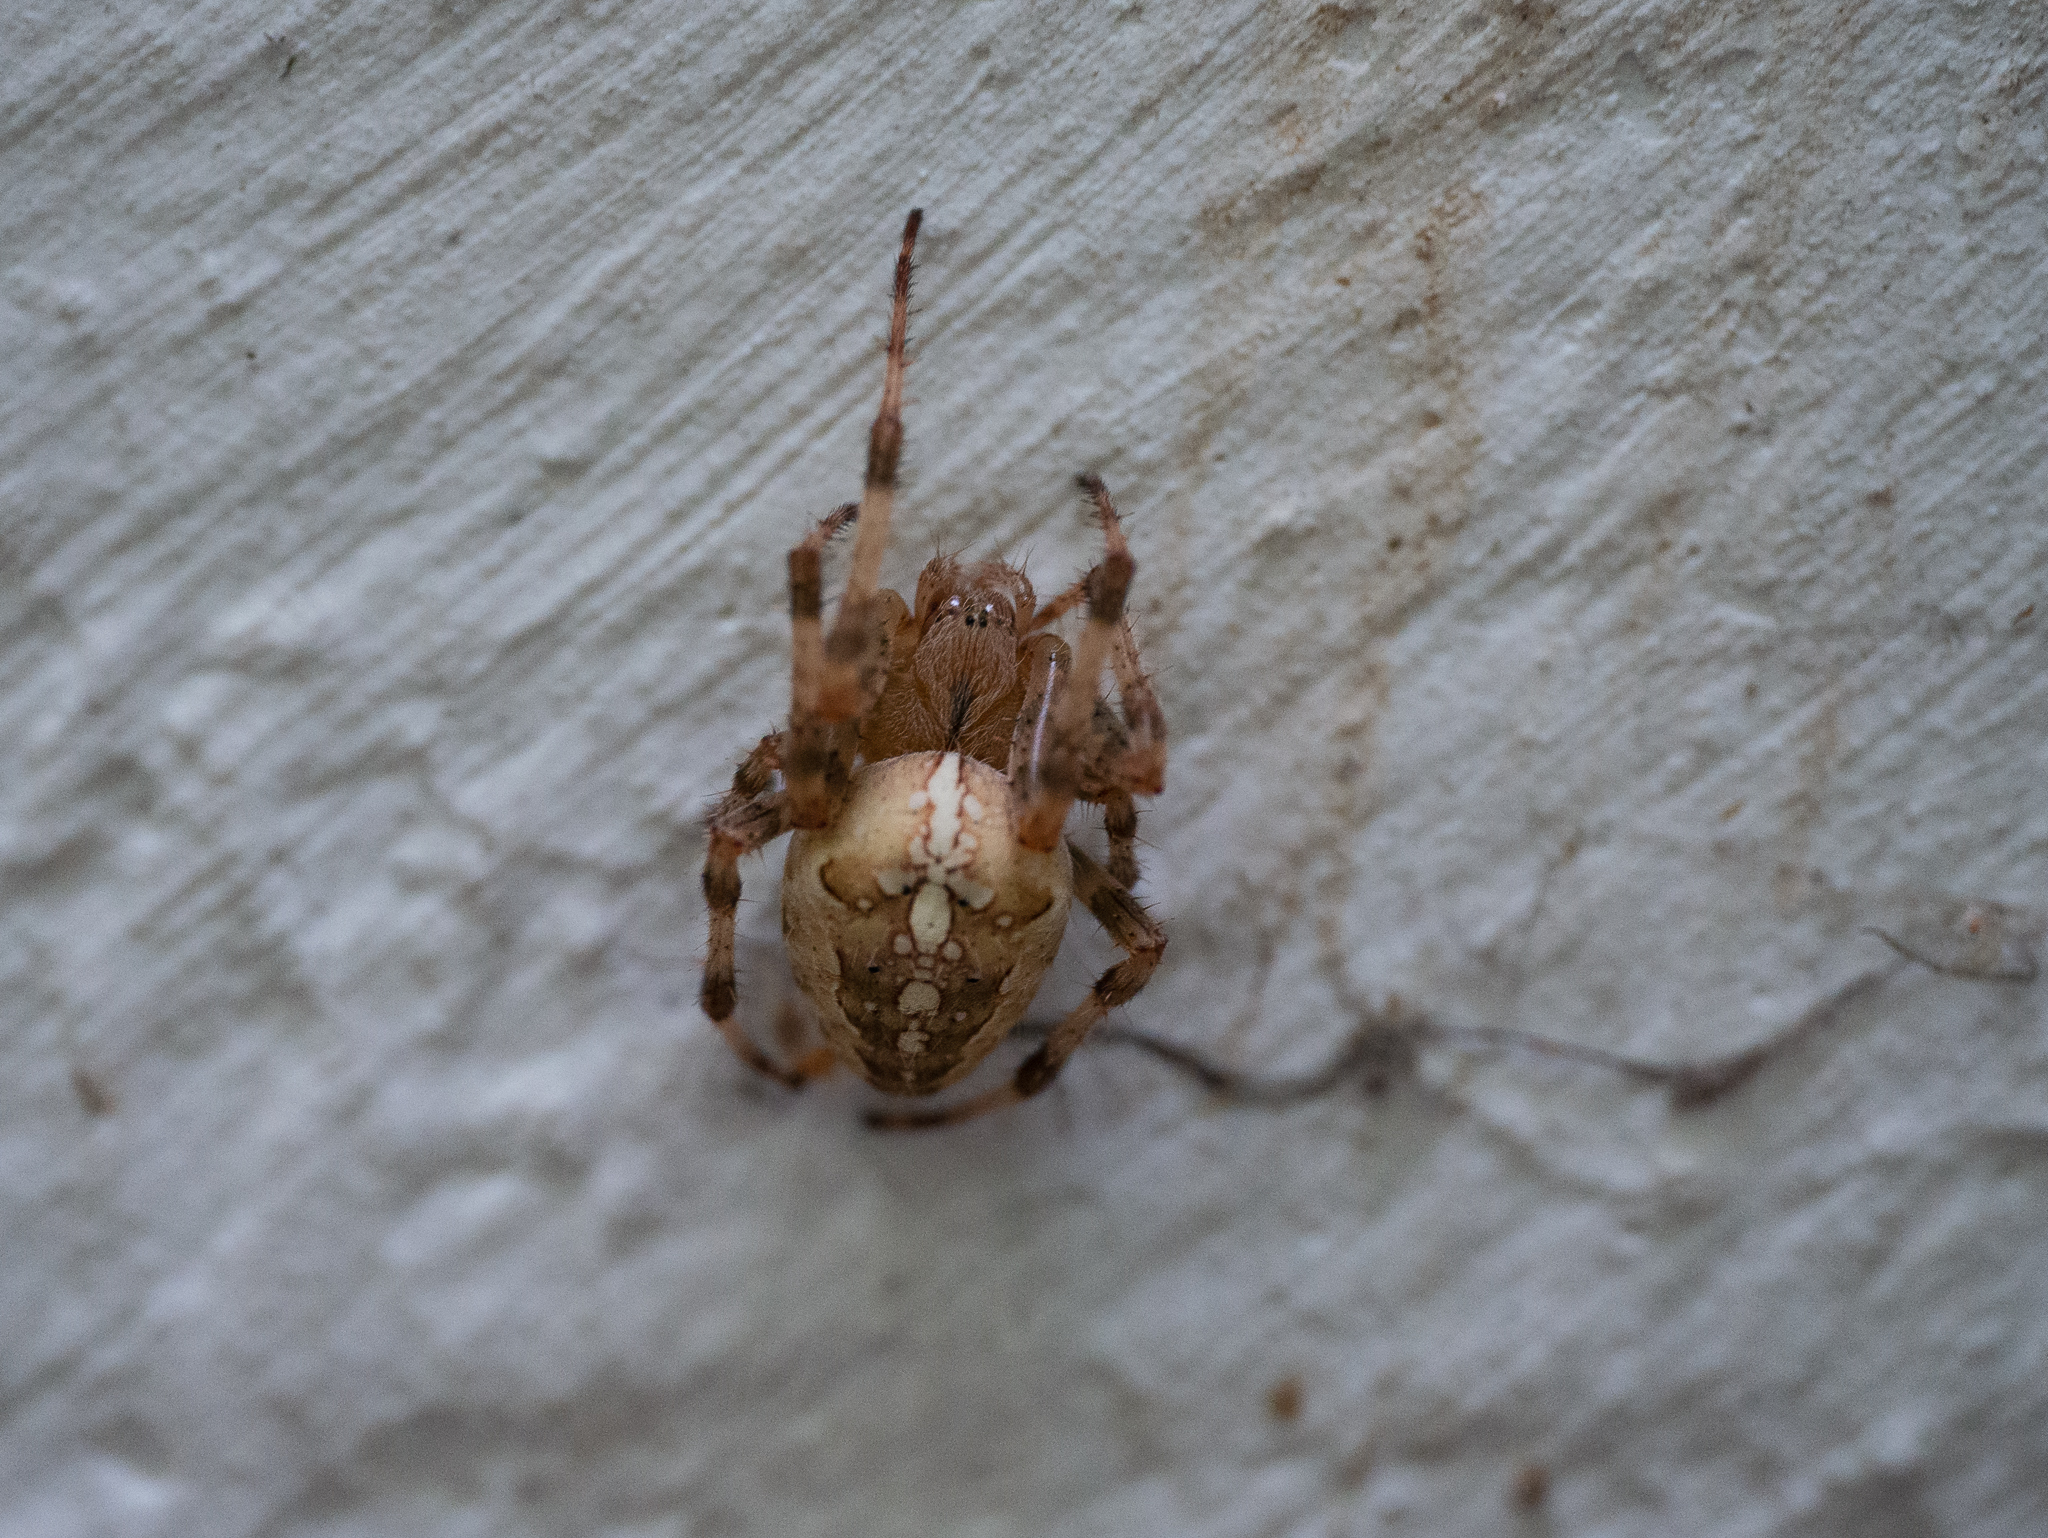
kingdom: Animalia
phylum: Arthropoda
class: Arachnida
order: Araneae
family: Araneidae
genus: Araneus
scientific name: Araneus diadematus
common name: Cross orbweaver
